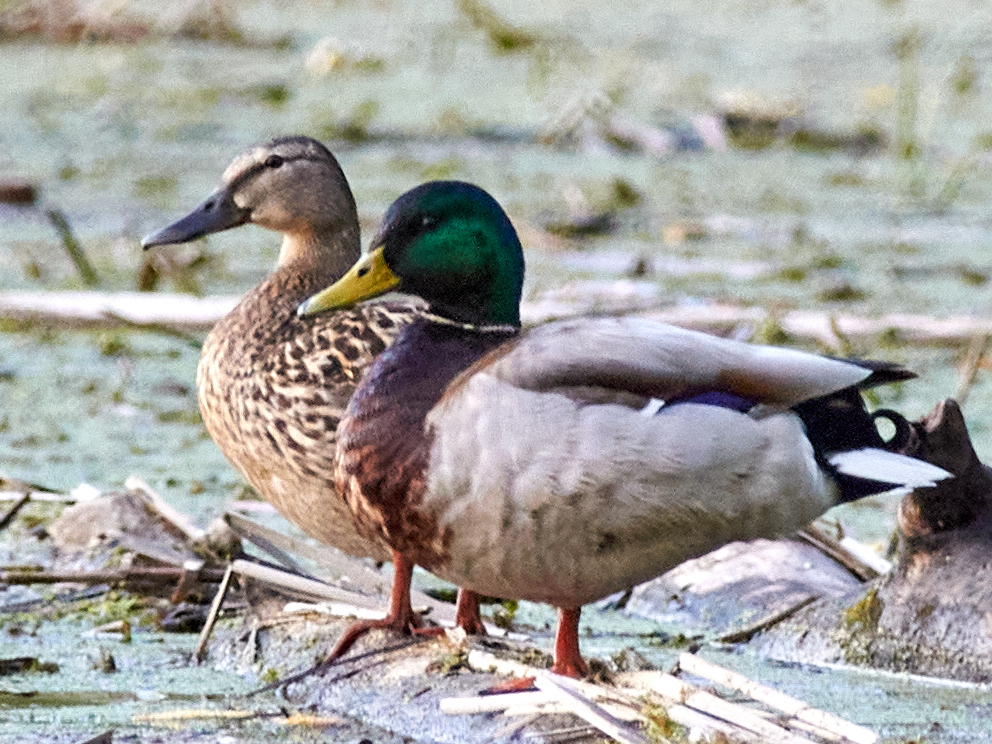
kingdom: Animalia
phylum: Chordata
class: Aves
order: Anseriformes
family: Anatidae
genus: Anas
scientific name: Anas platyrhynchos
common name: Mallard
